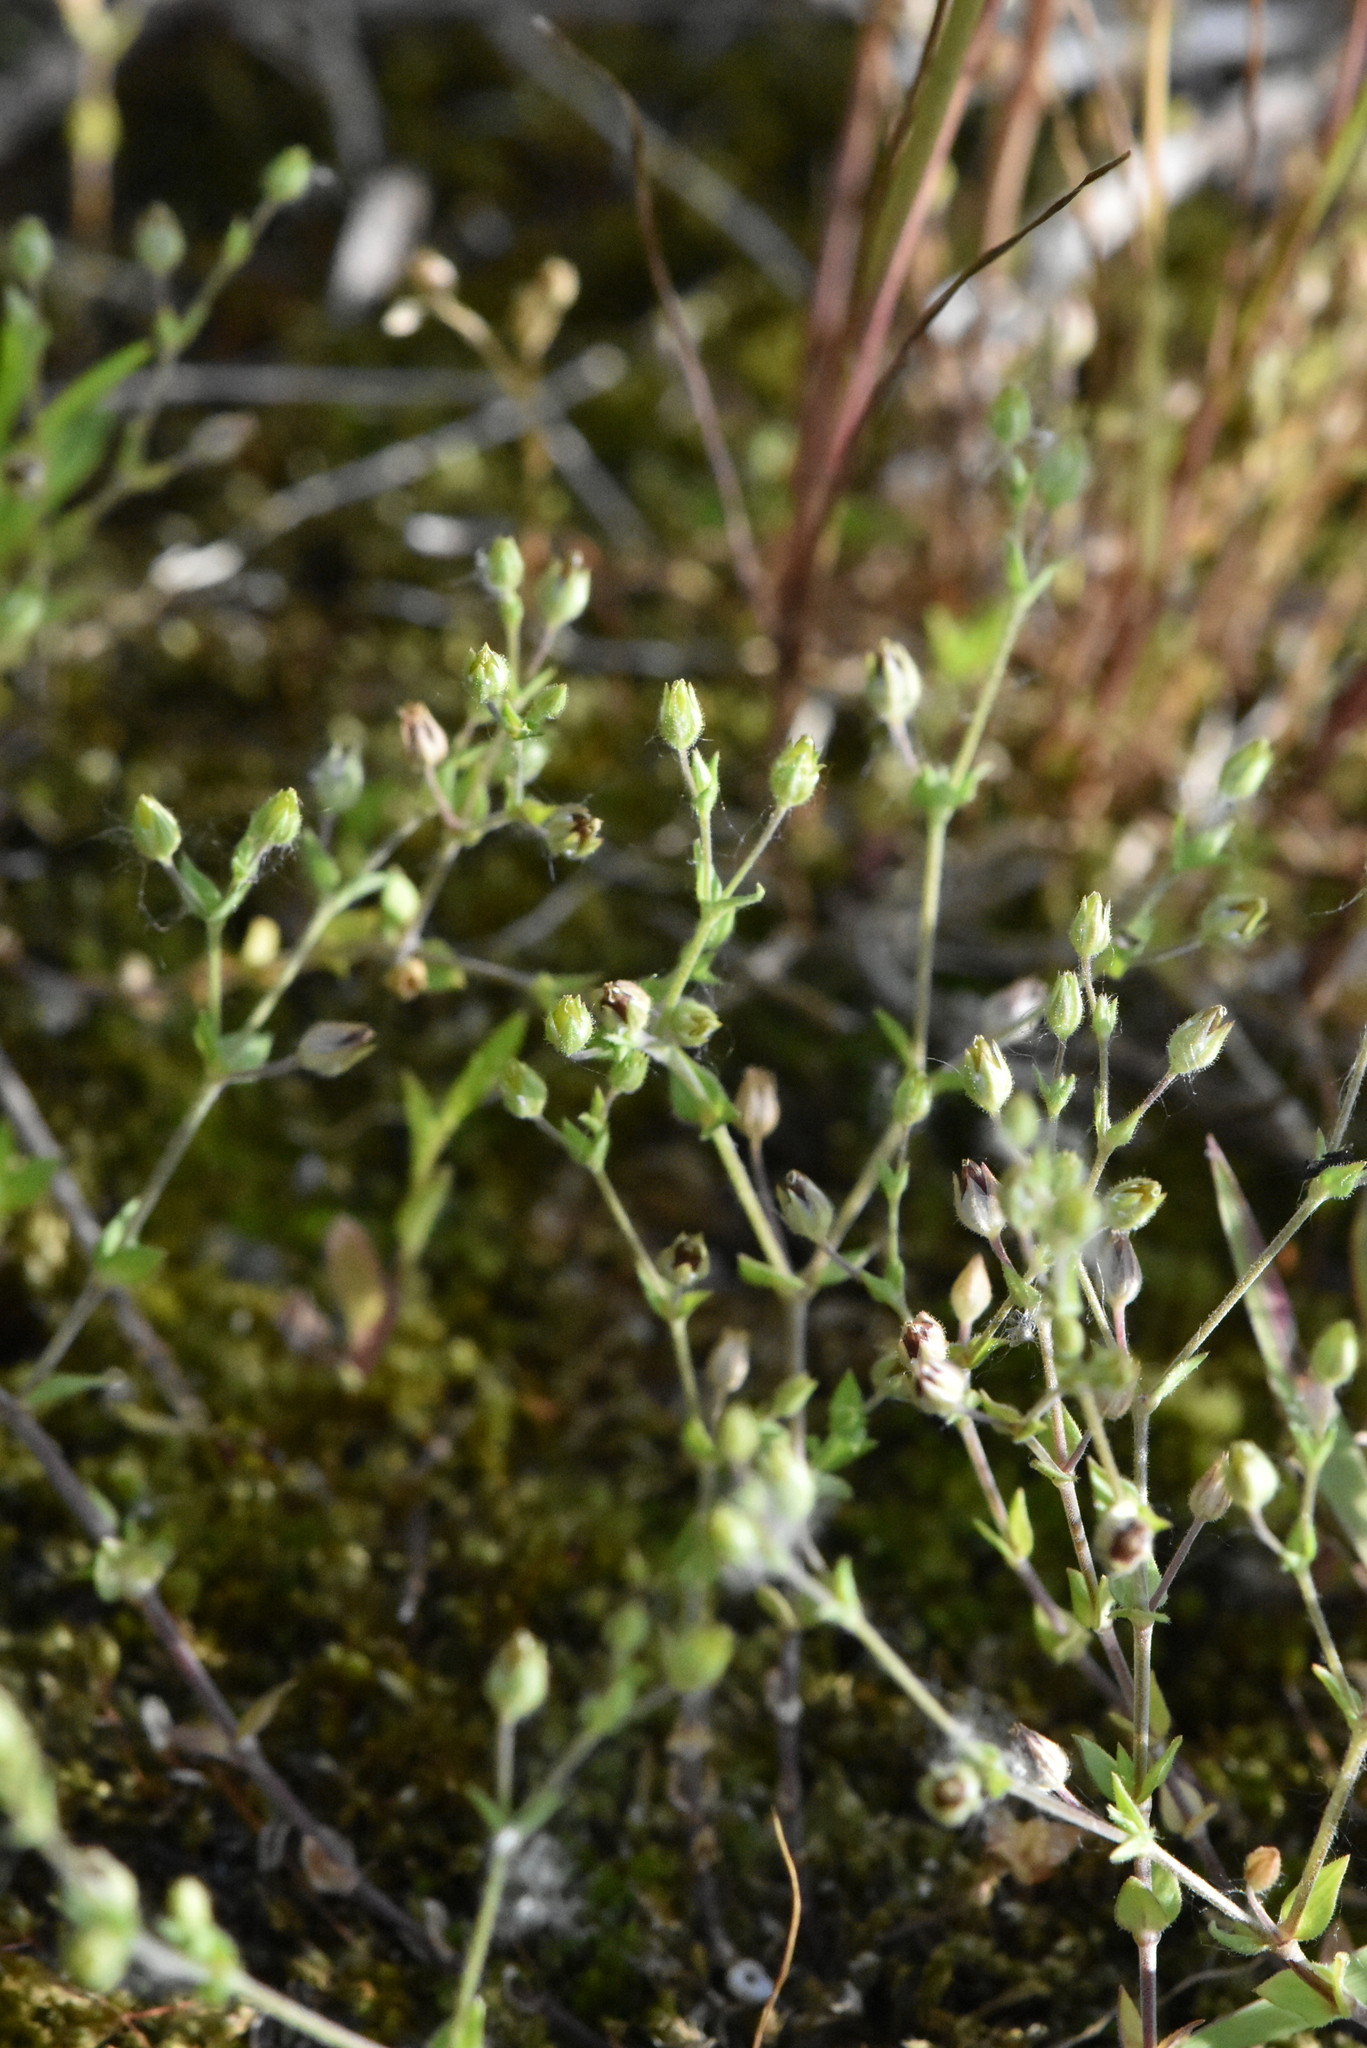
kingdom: Plantae
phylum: Tracheophyta
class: Magnoliopsida
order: Caryophyllales
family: Caryophyllaceae
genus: Arenaria
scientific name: Arenaria serpyllifolia
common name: Thyme-leaved sandwort
